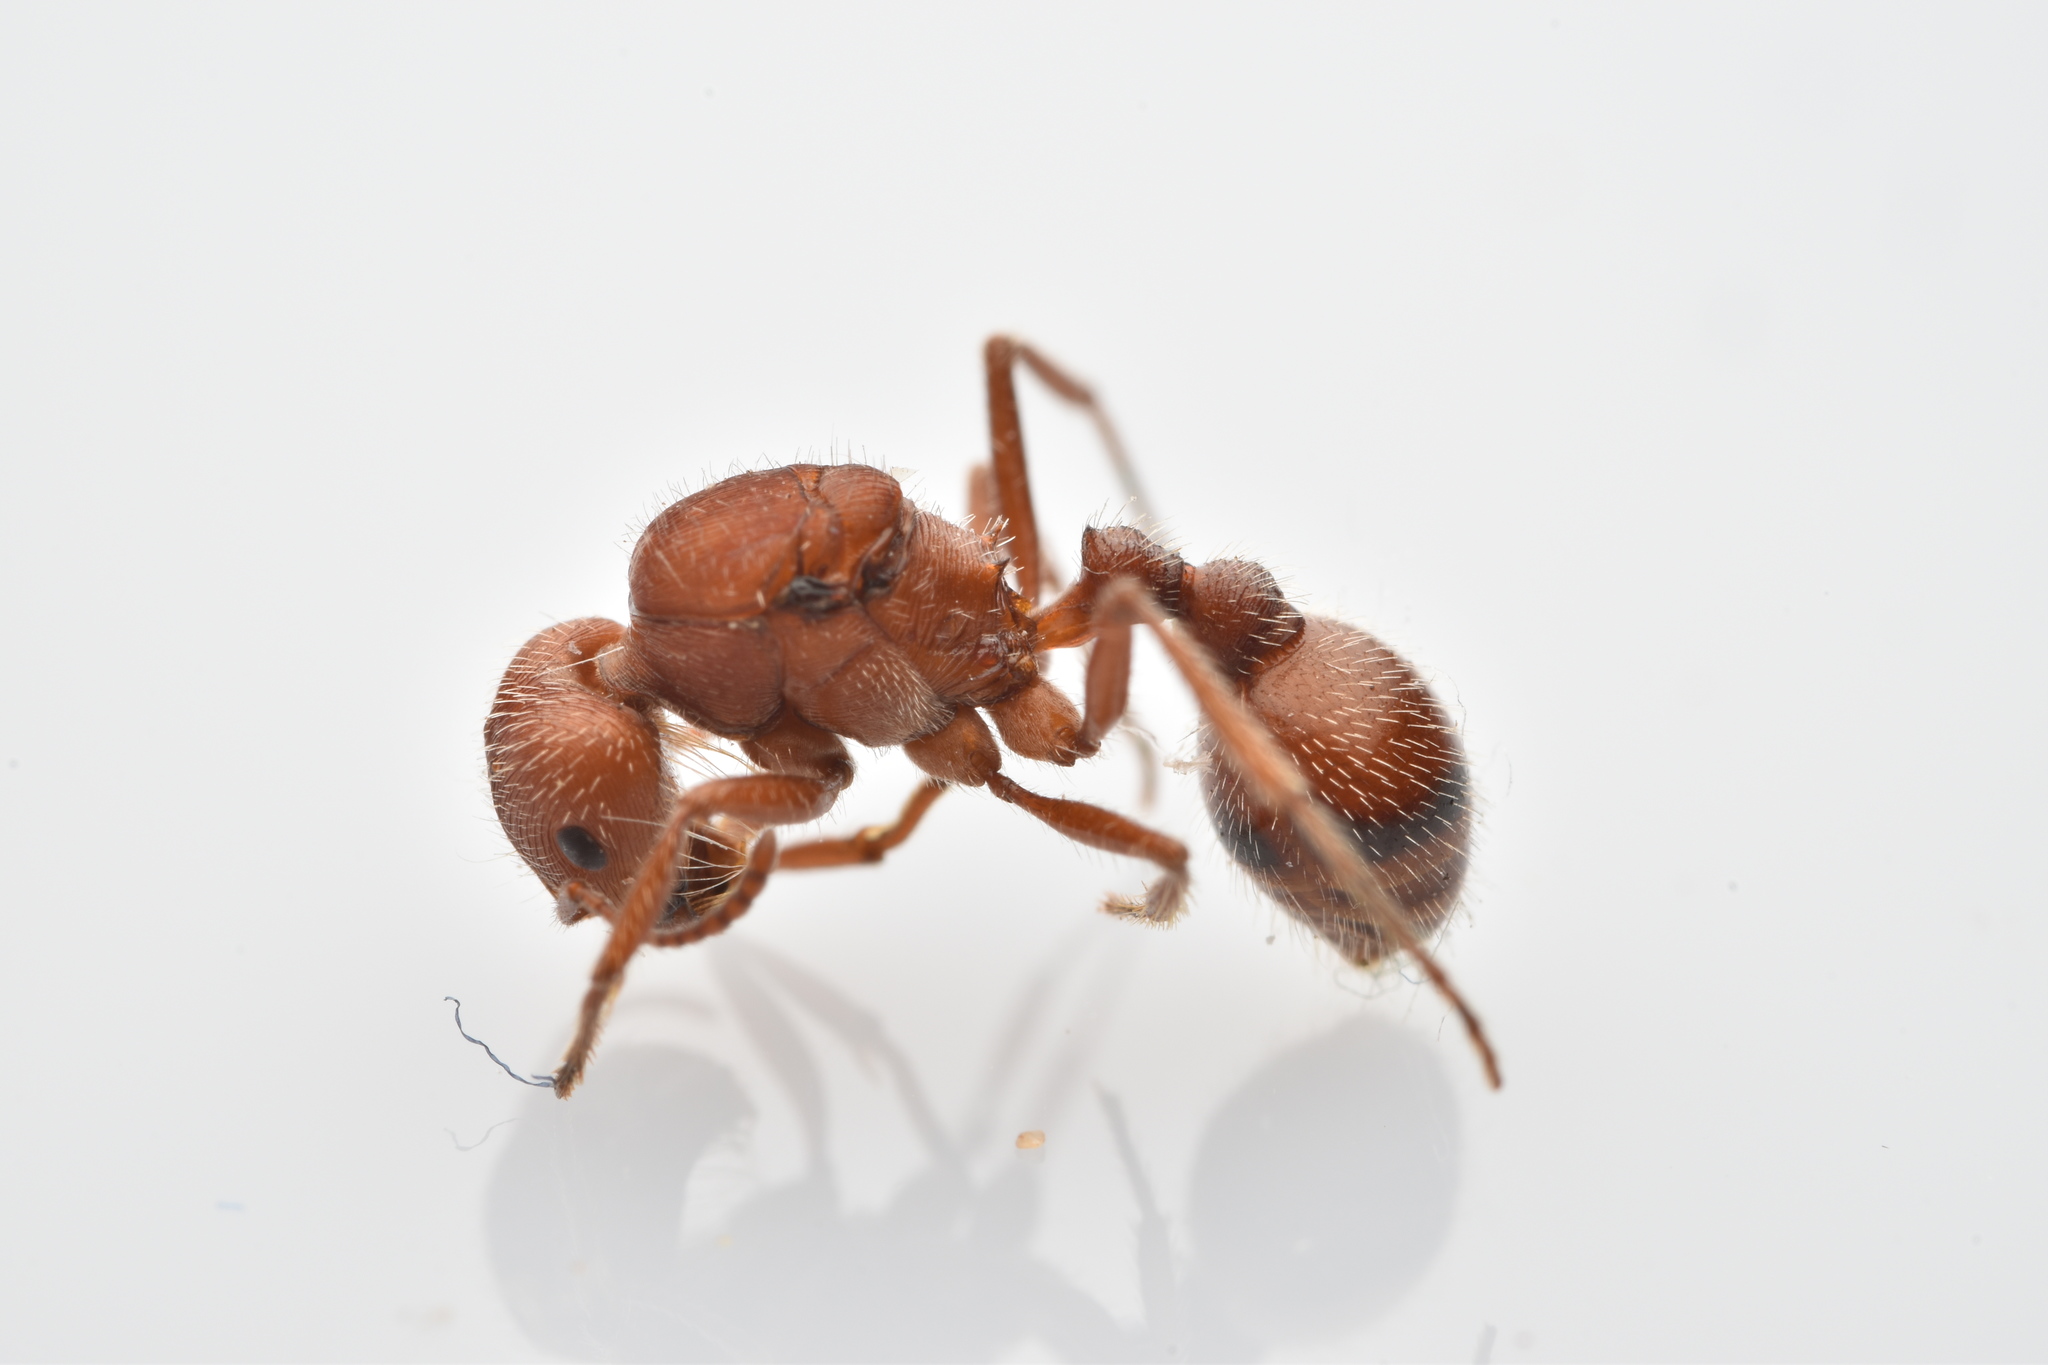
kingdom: Animalia
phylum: Arthropoda
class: Insecta
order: Hymenoptera
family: Formicidae
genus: Pogonomyrmex
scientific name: Pogonomyrmex comanche
